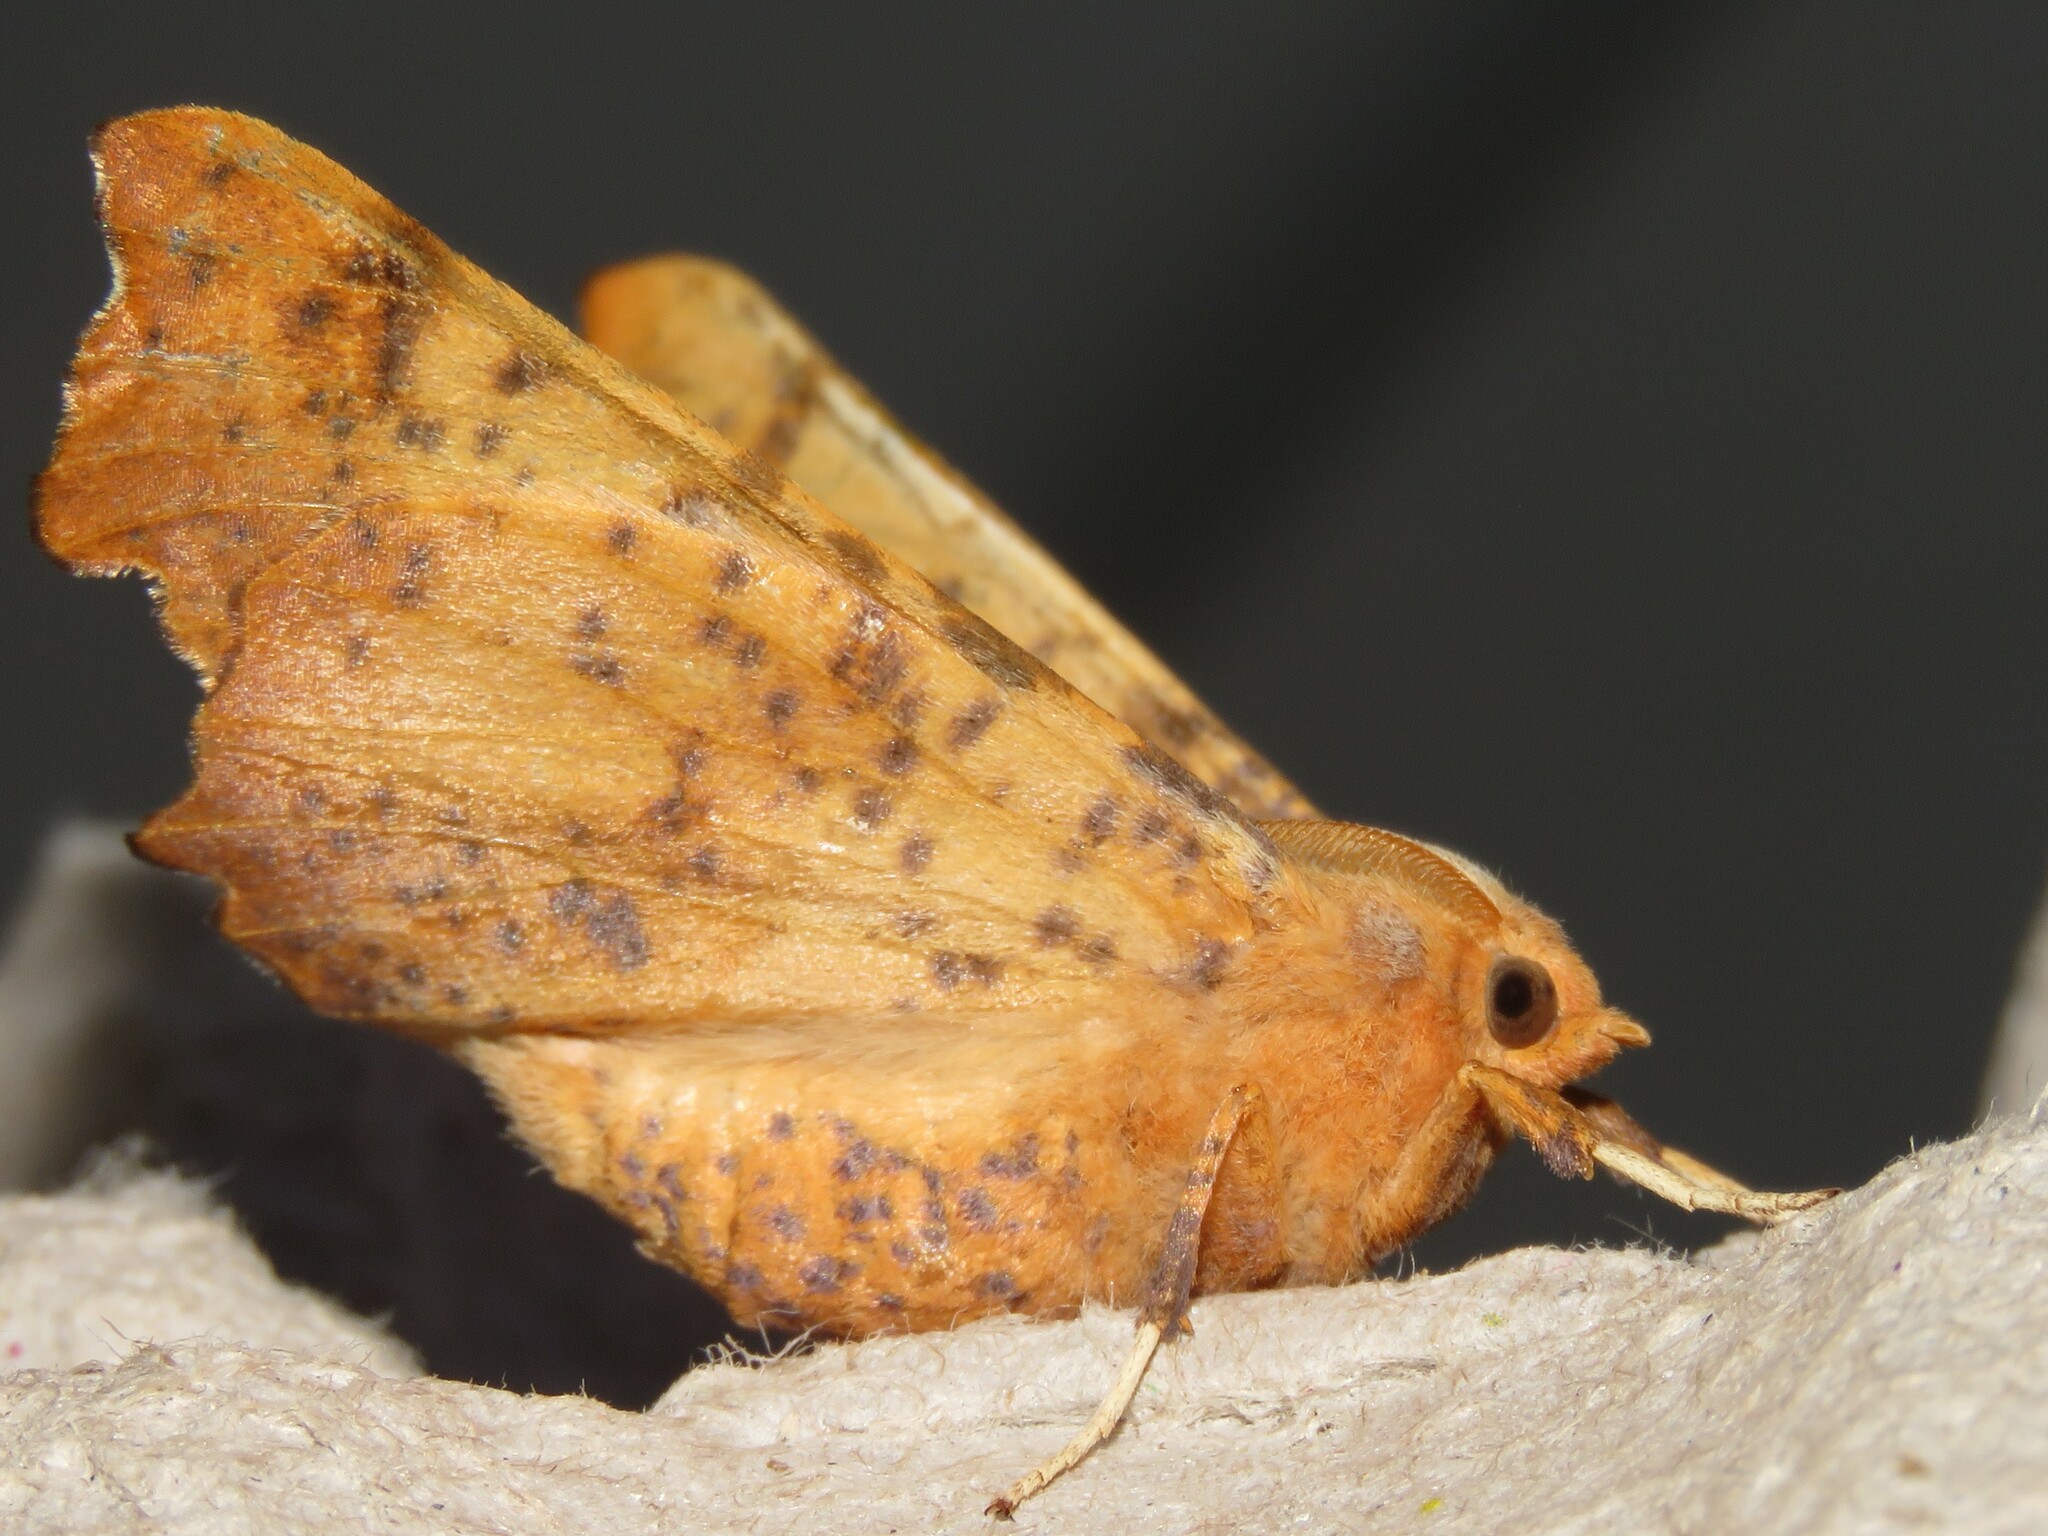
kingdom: Animalia
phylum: Arthropoda
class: Insecta
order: Lepidoptera
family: Geometridae
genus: Ennomos
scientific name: Ennomos magnaria
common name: Maple spanworm
